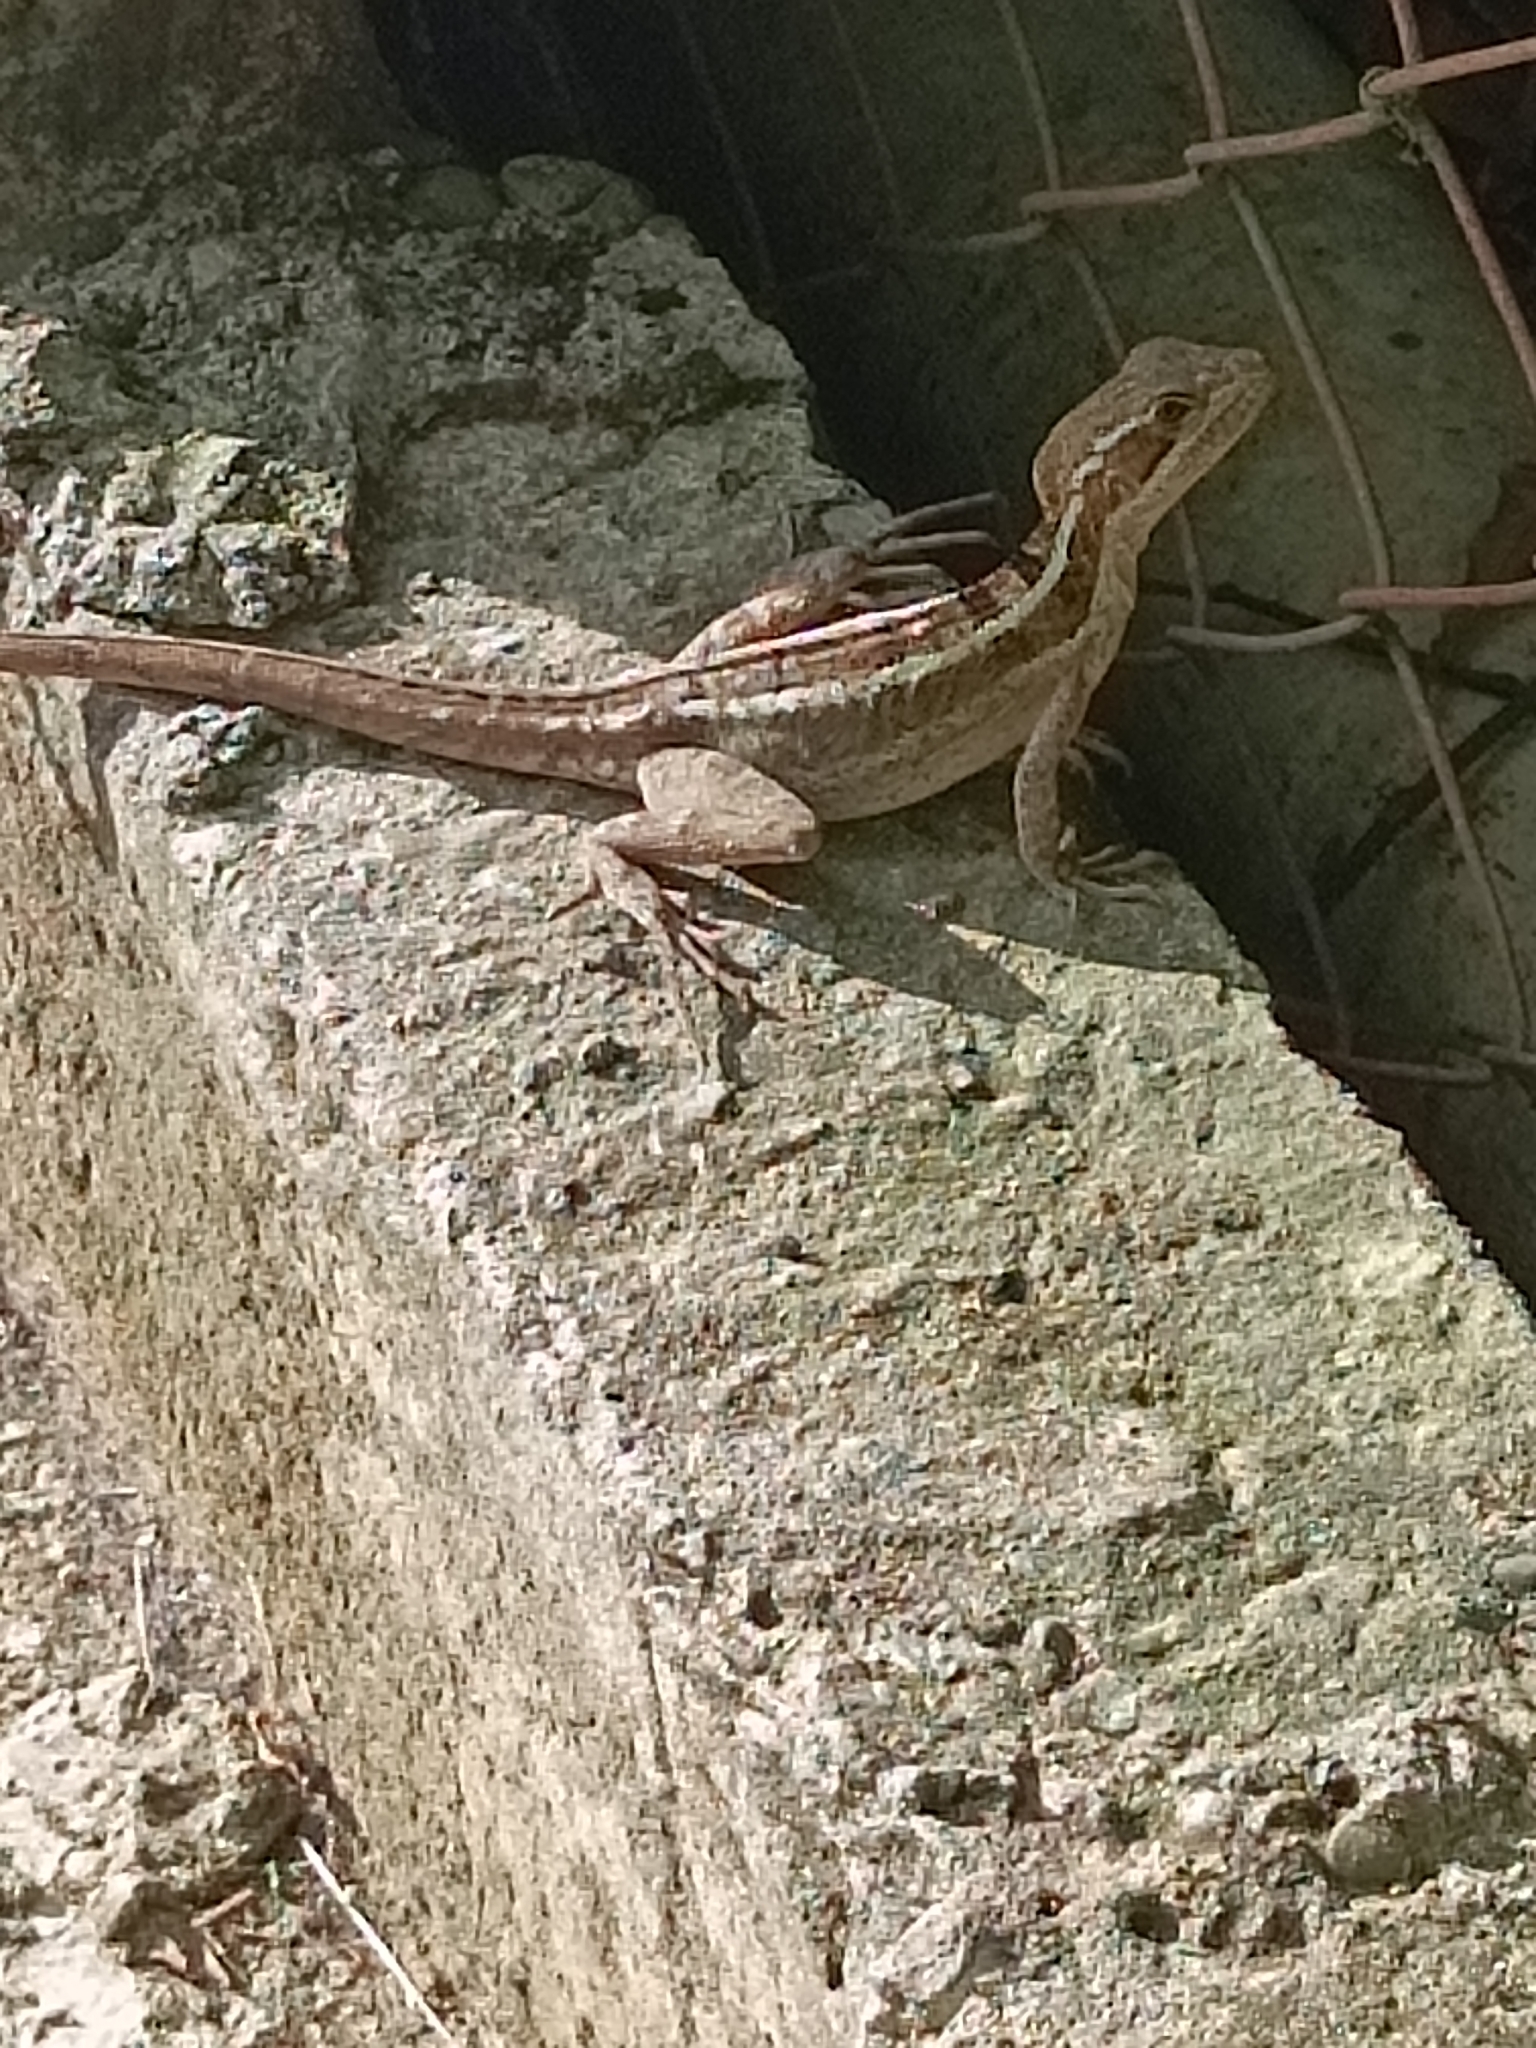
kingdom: Animalia
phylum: Chordata
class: Squamata
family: Corytophanidae
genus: Basiliscus
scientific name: Basiliscus vittatus
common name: Brown basilisk
